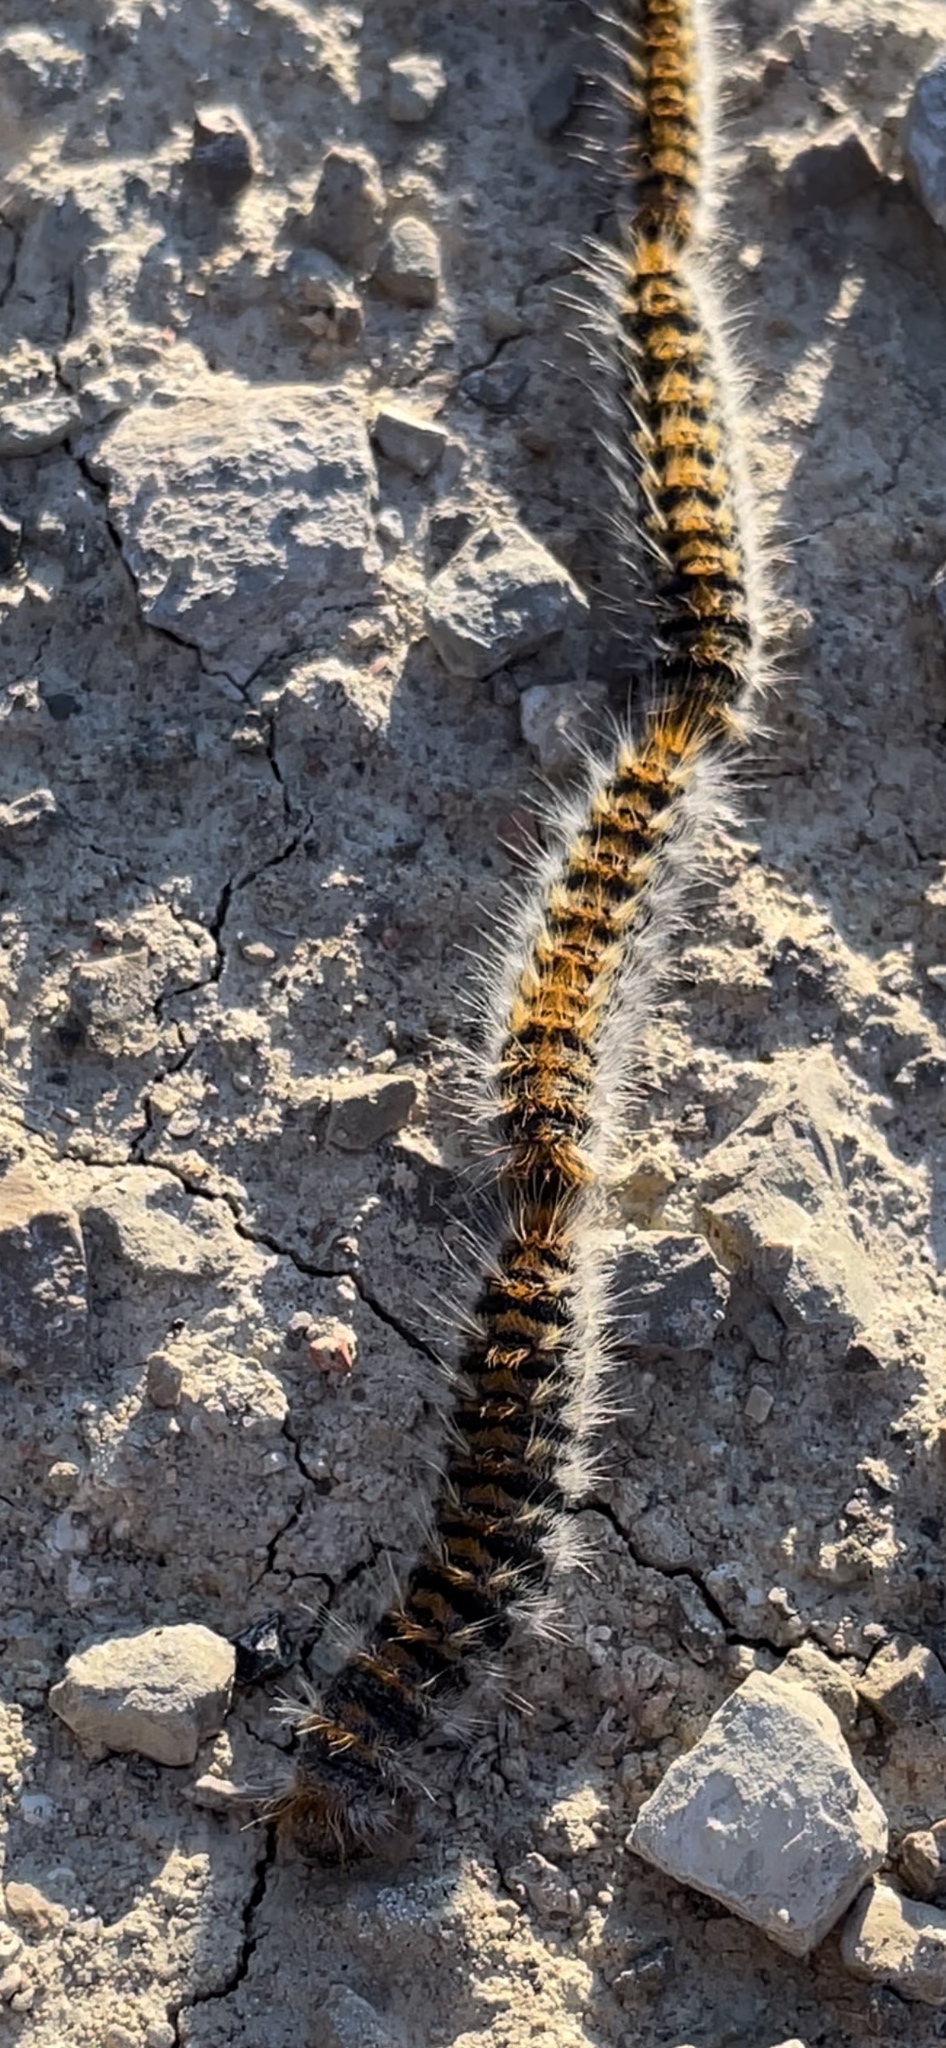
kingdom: Animalia
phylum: Arthropoda
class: Insecta
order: Lepidoptera
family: Notodontidae
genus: Thaumetopoea
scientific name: Thaumetopoea pityocampa
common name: Pine processionary
